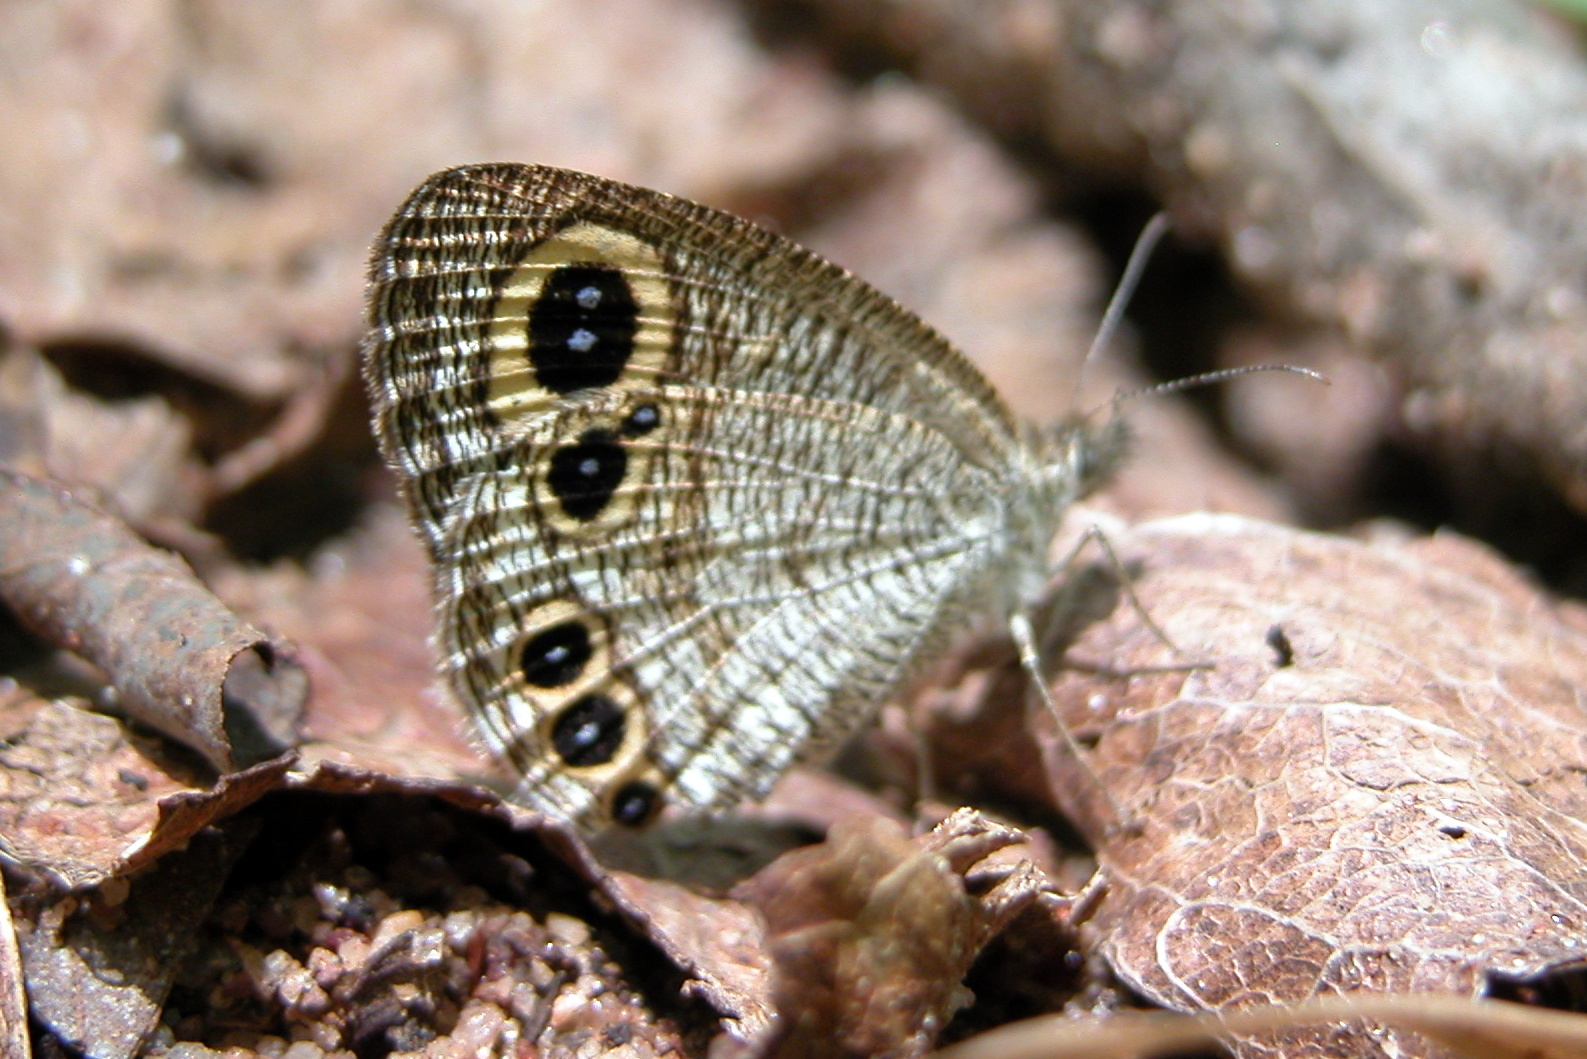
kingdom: Animalia
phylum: Arthropoda
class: Insecta
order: Lepidoptera
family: Nymphalidae
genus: Ypthima
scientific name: Ypthima huebneri
